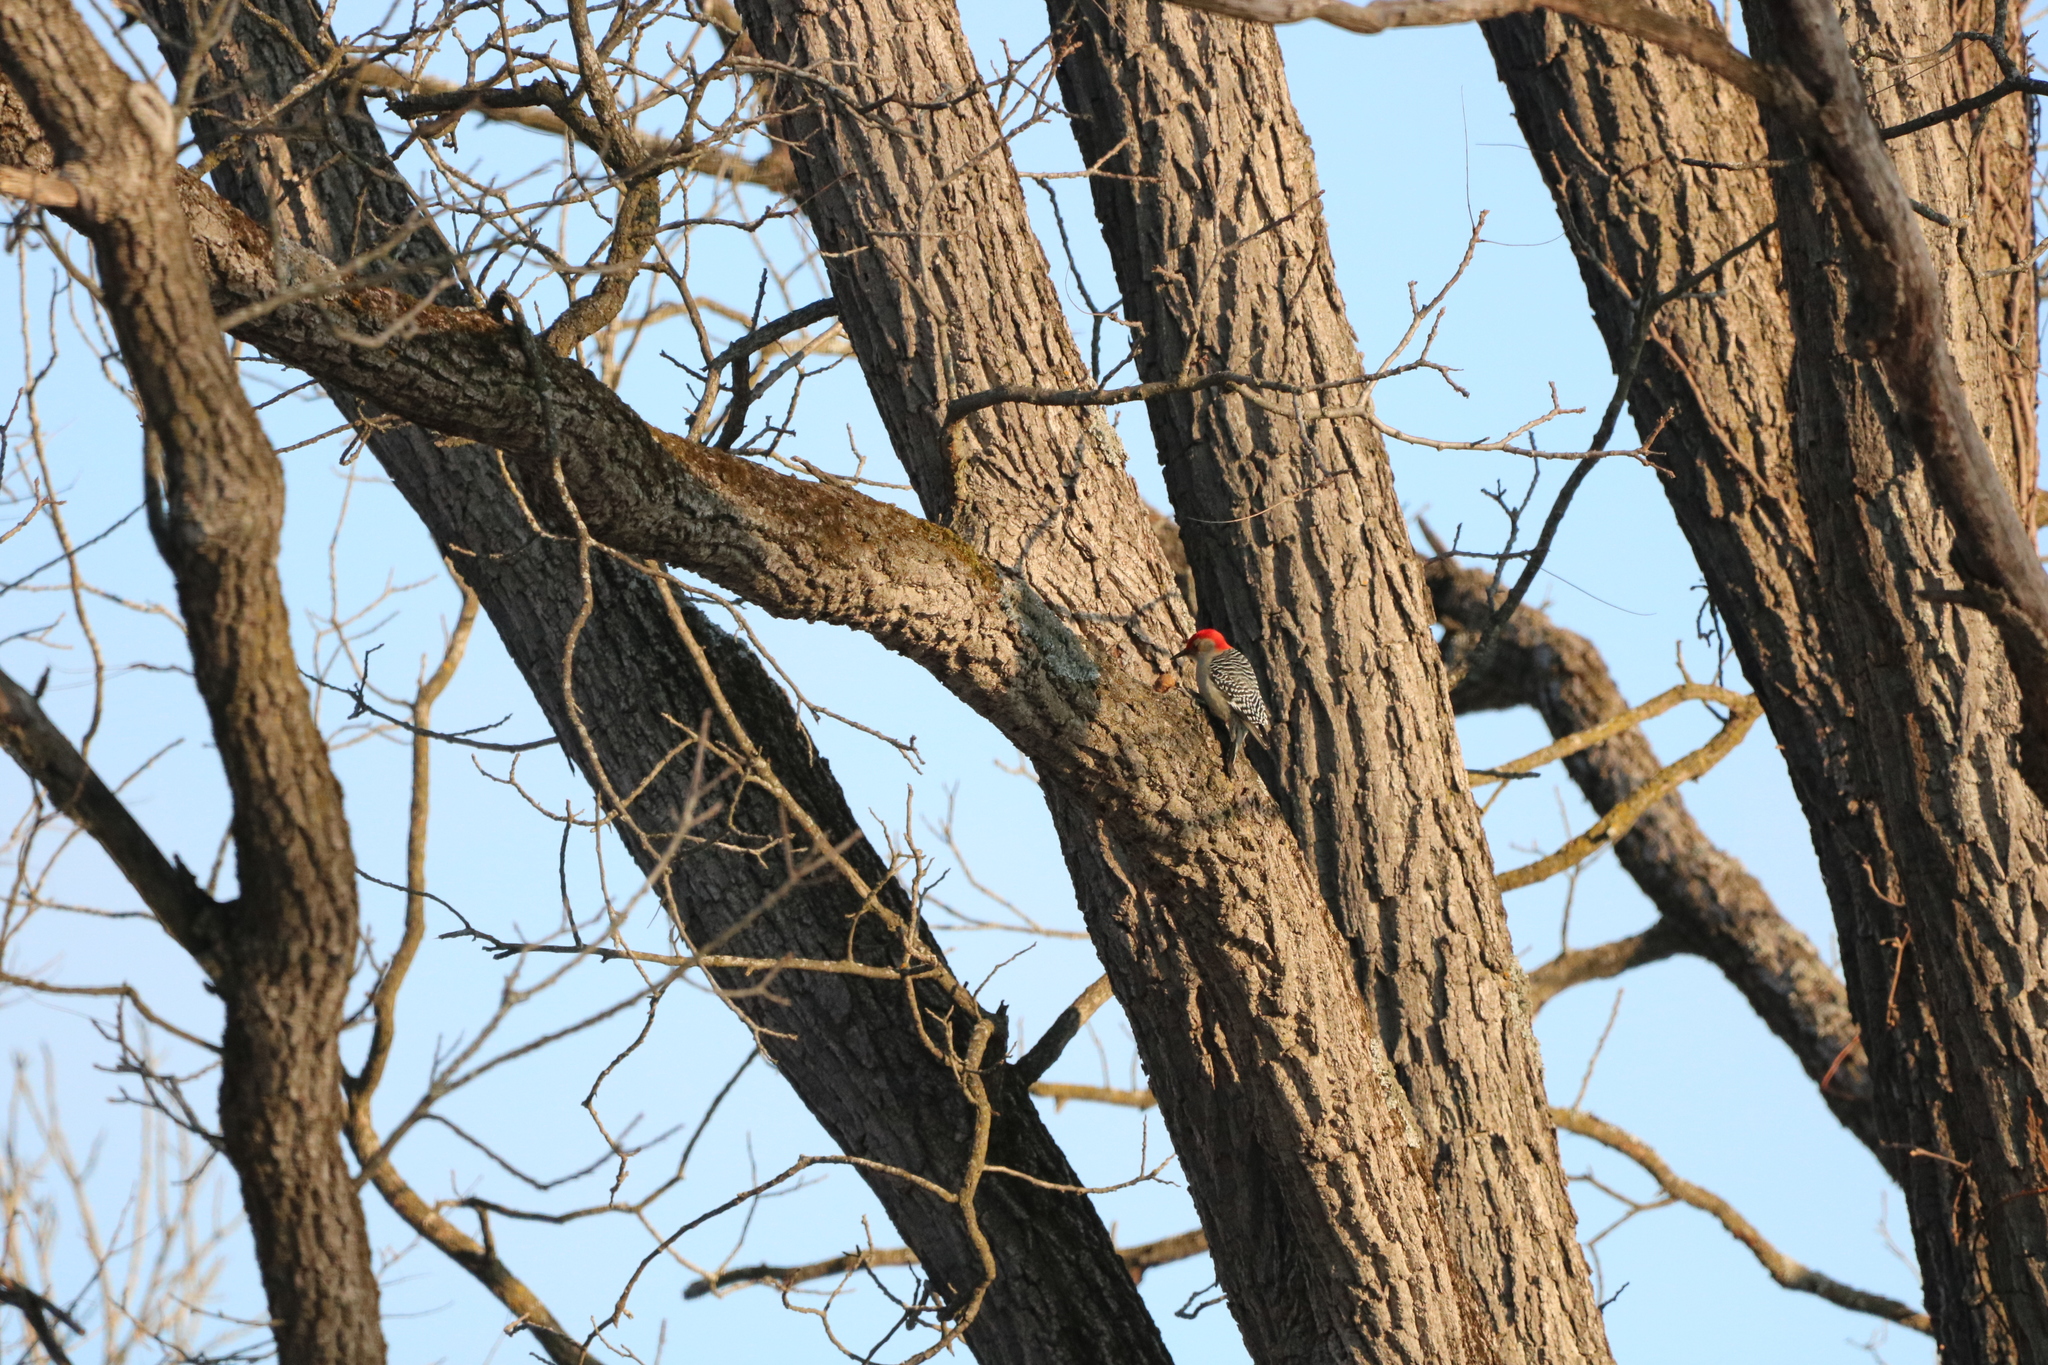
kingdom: Animalia
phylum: Chordata
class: Aves
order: Piciformes
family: Picidae
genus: Melanerpes
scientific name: Melanerpes carolinus
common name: Red-bellied woodpecker
